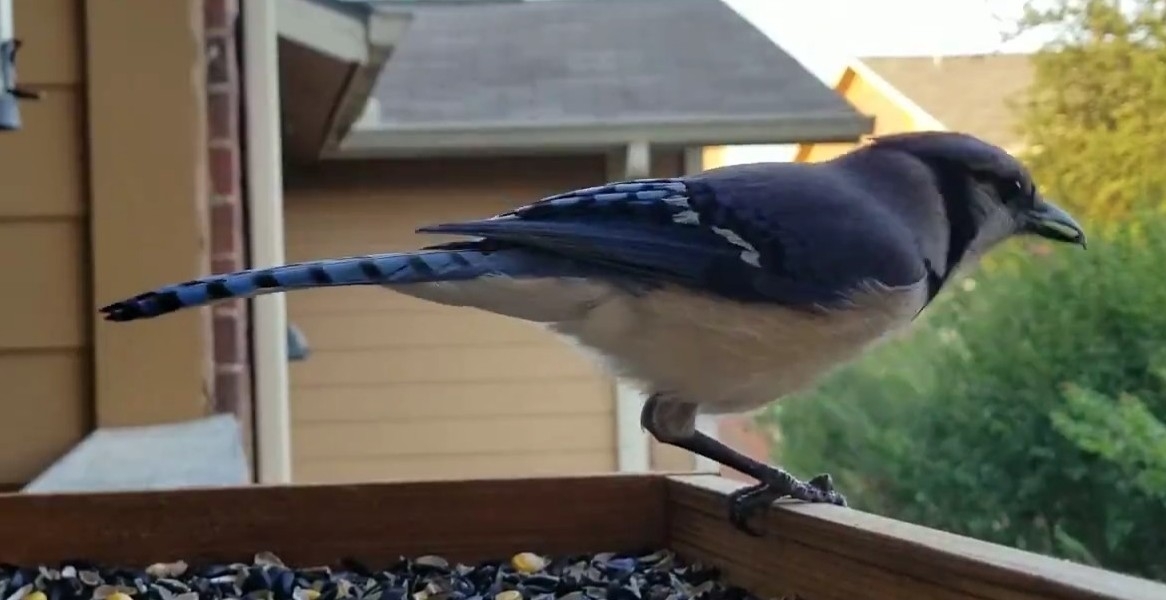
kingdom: Animalia
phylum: Chordata
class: Aves
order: Passeriformes
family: Corvidae
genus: Cyanocitta
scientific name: Cyanocitta cristata
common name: Blue jay
